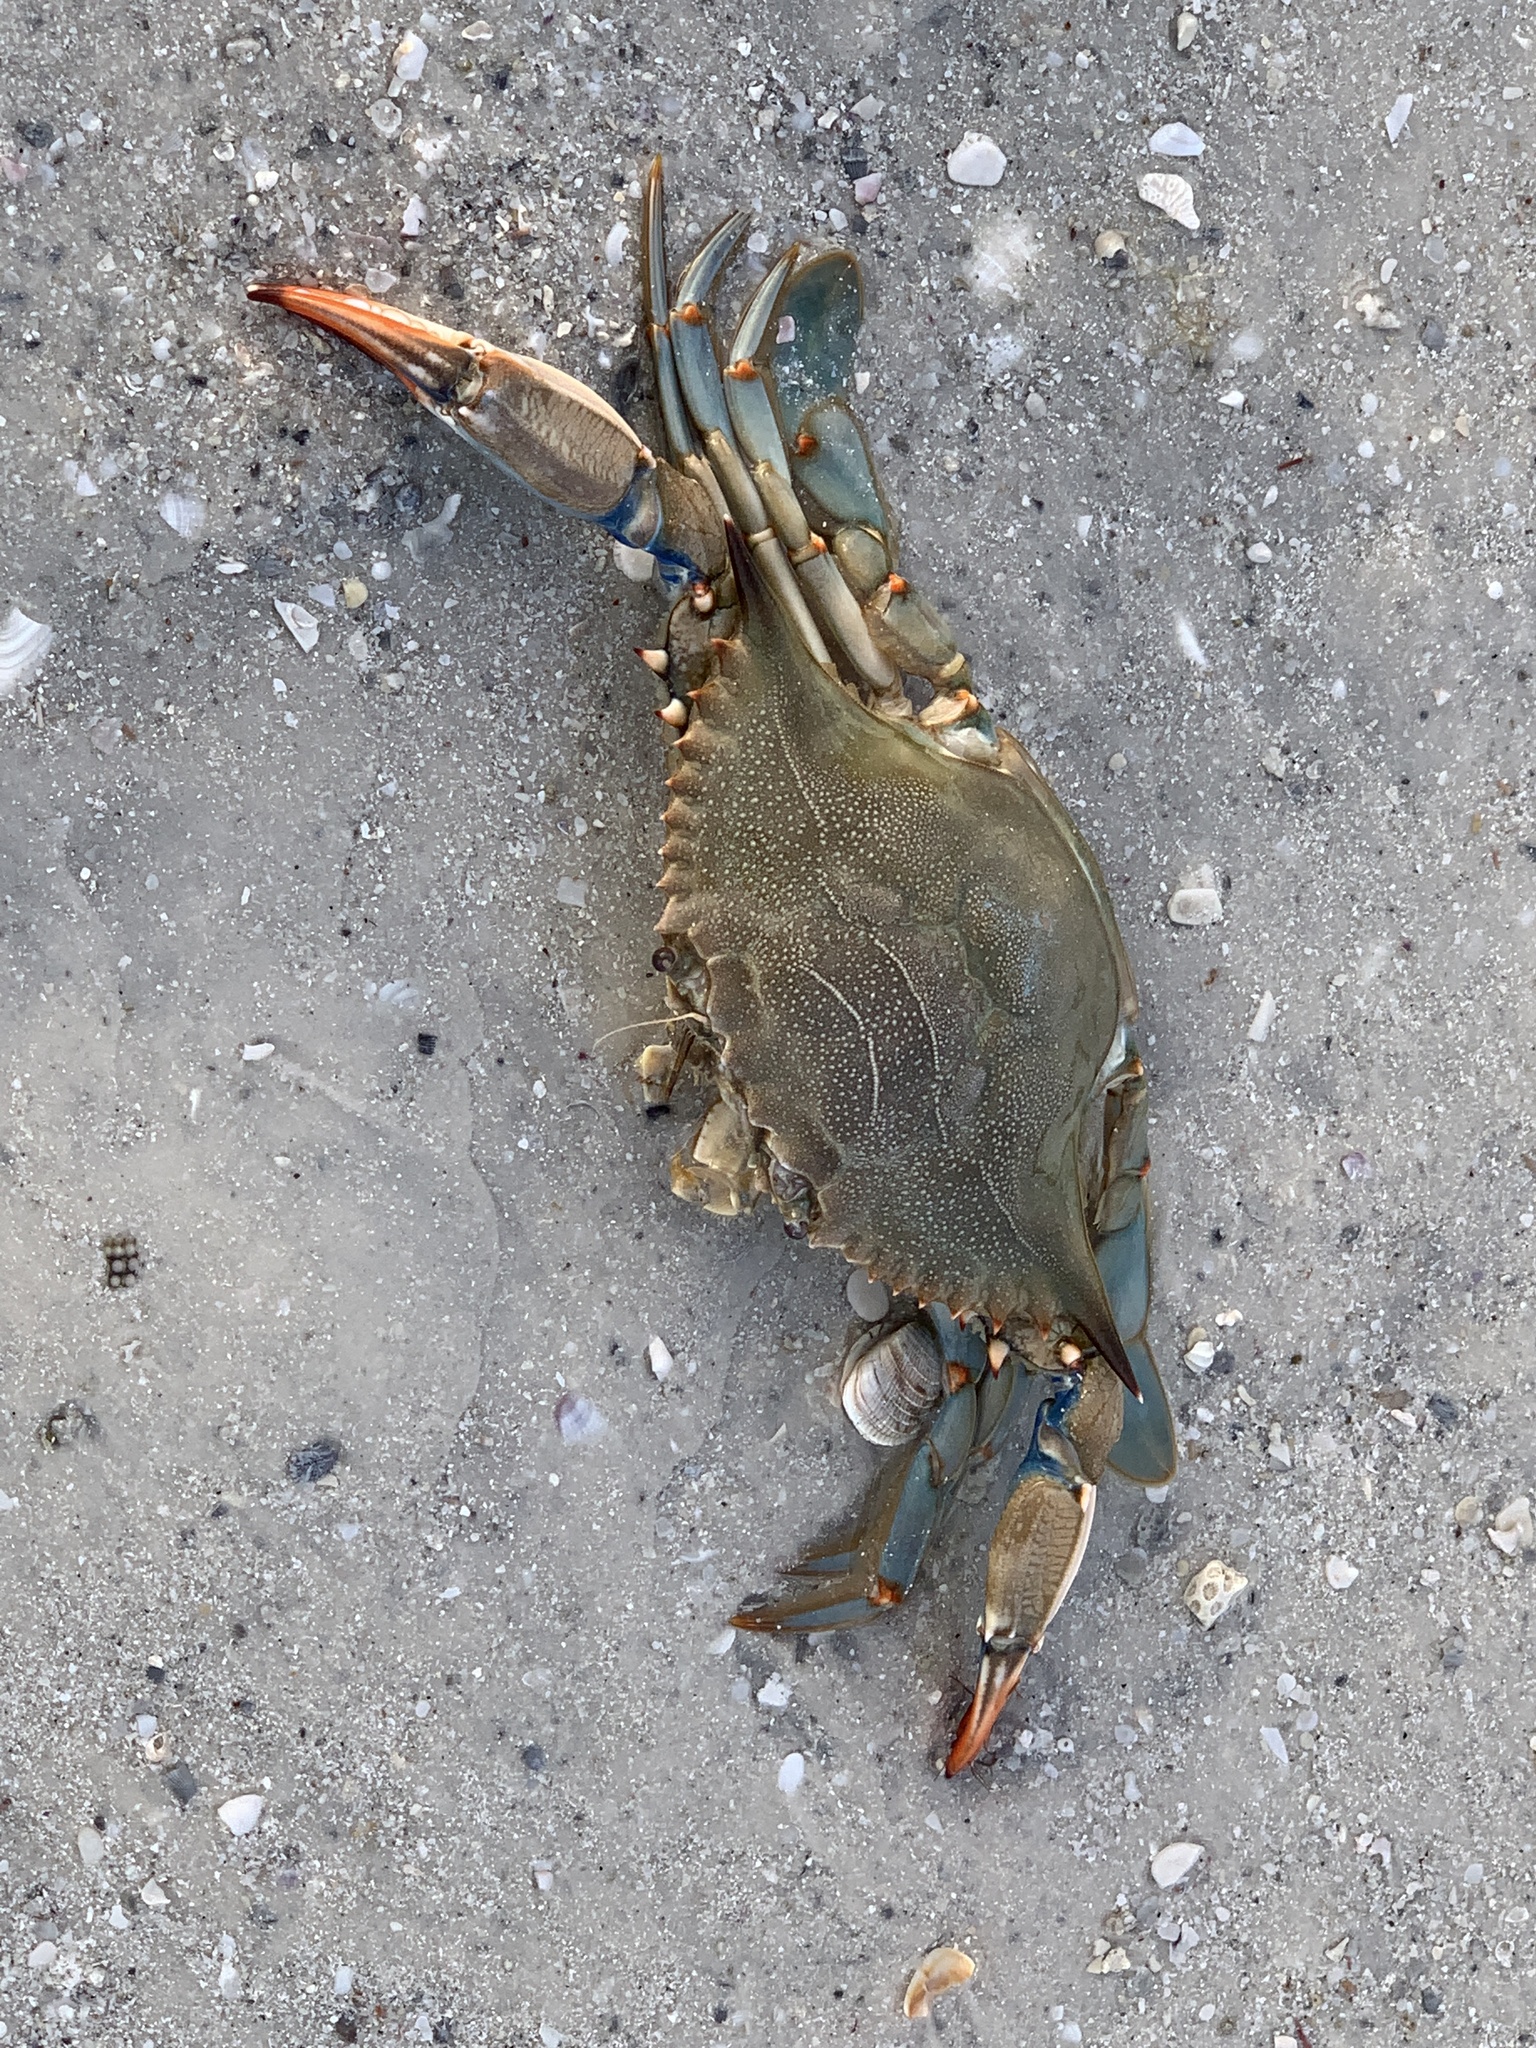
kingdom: Animalia
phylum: Arthropoda
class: Malacostraca
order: Decapoda
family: Portunidae
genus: Callinectes
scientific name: Callinectes sapidus
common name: Blue crab
